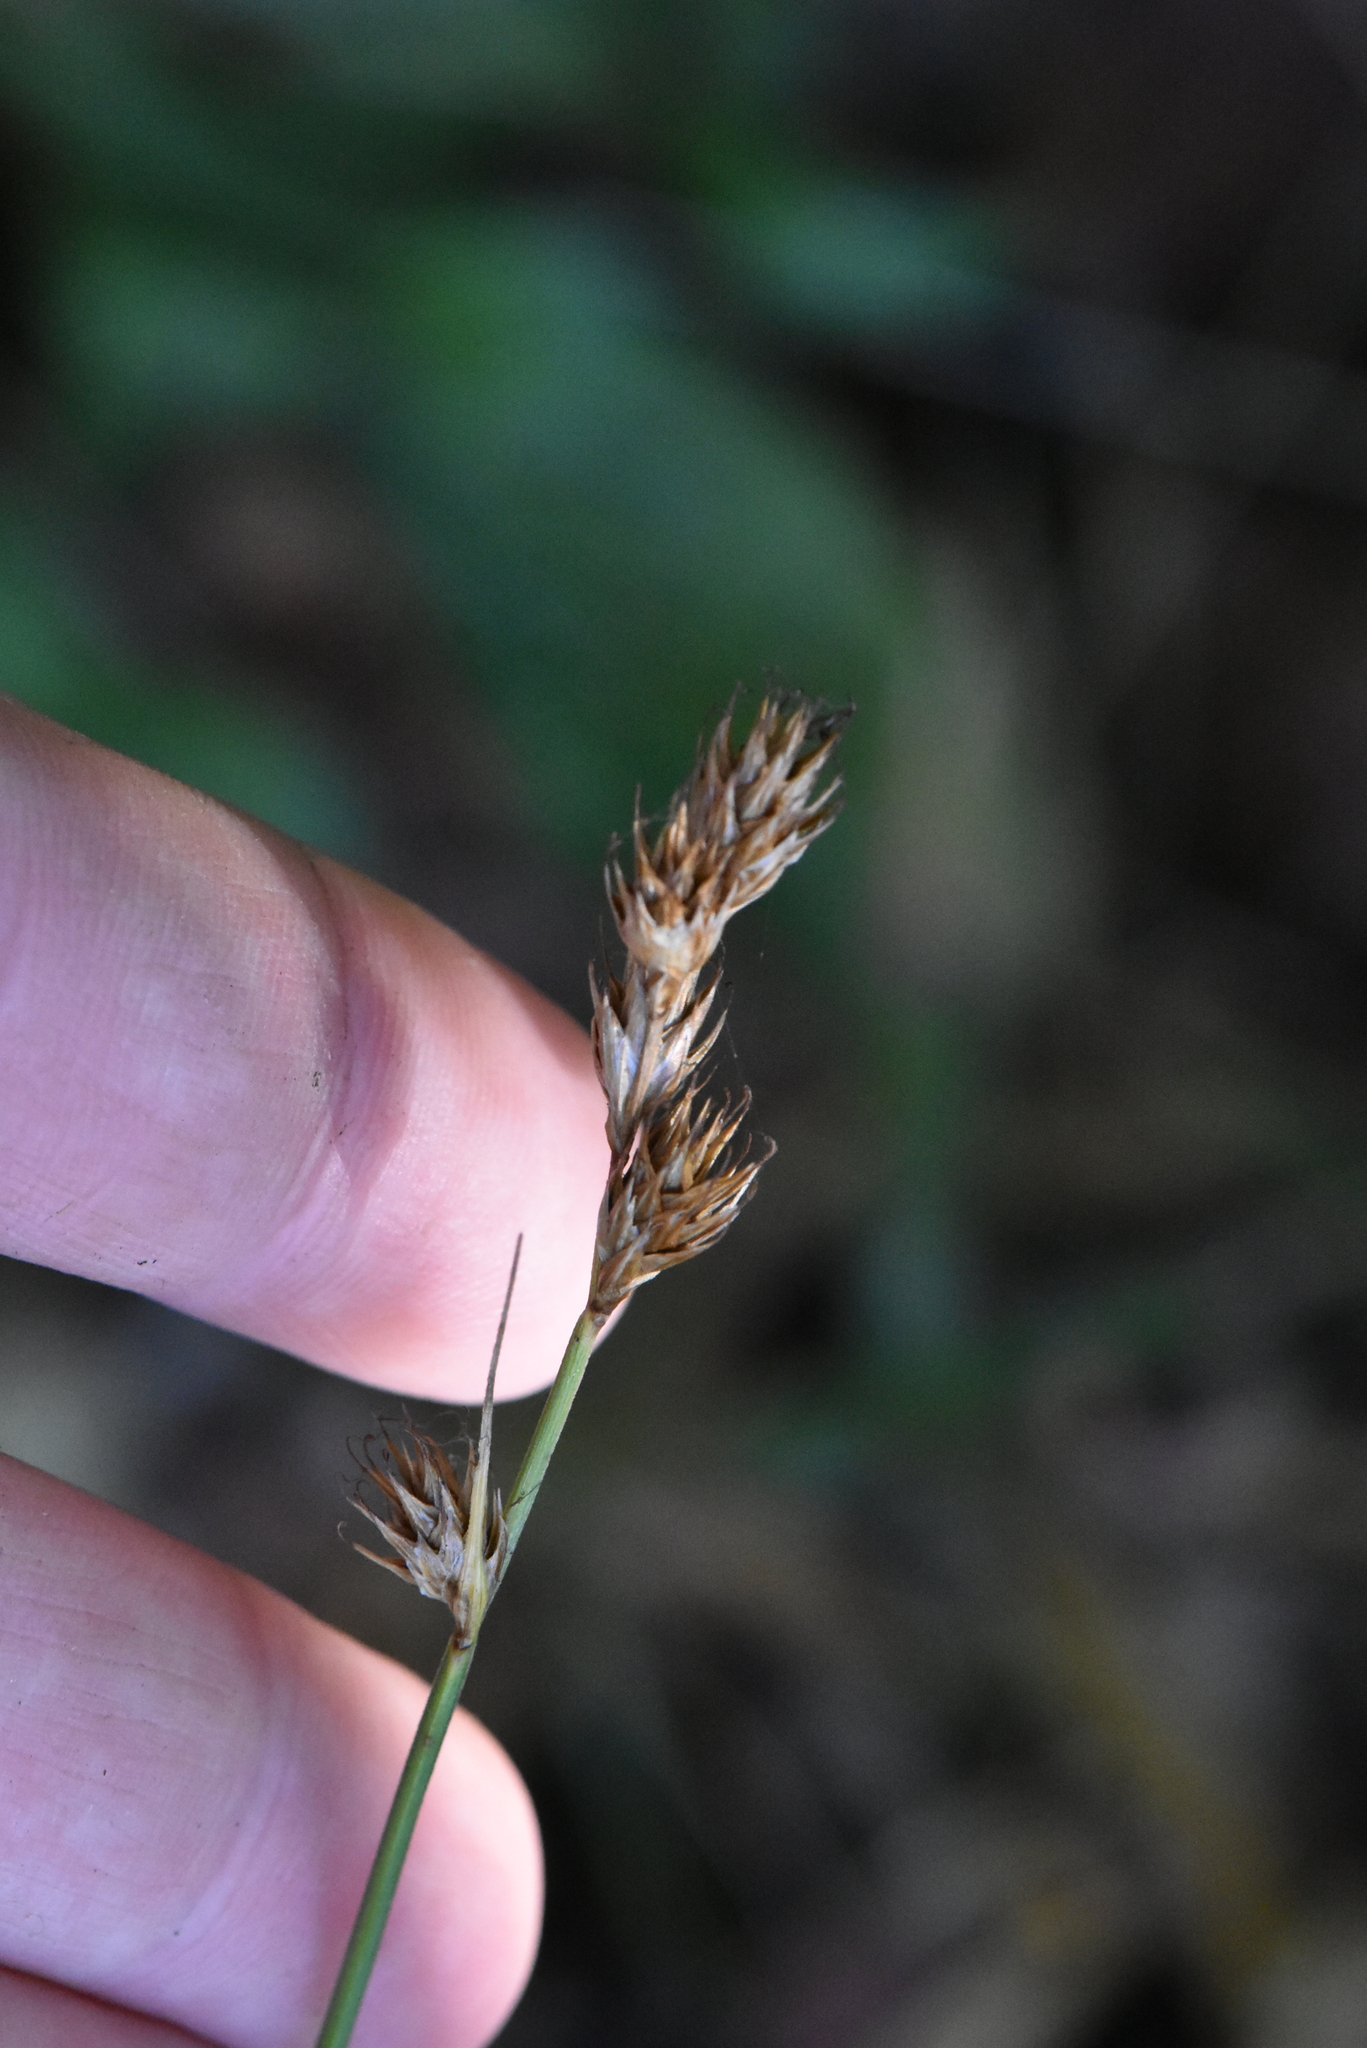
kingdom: Plantae
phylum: Tracheophyta
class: Liliopsida
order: Poales
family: Cyperaceae
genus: Carex
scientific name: Carex leporina
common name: Oval sedge
